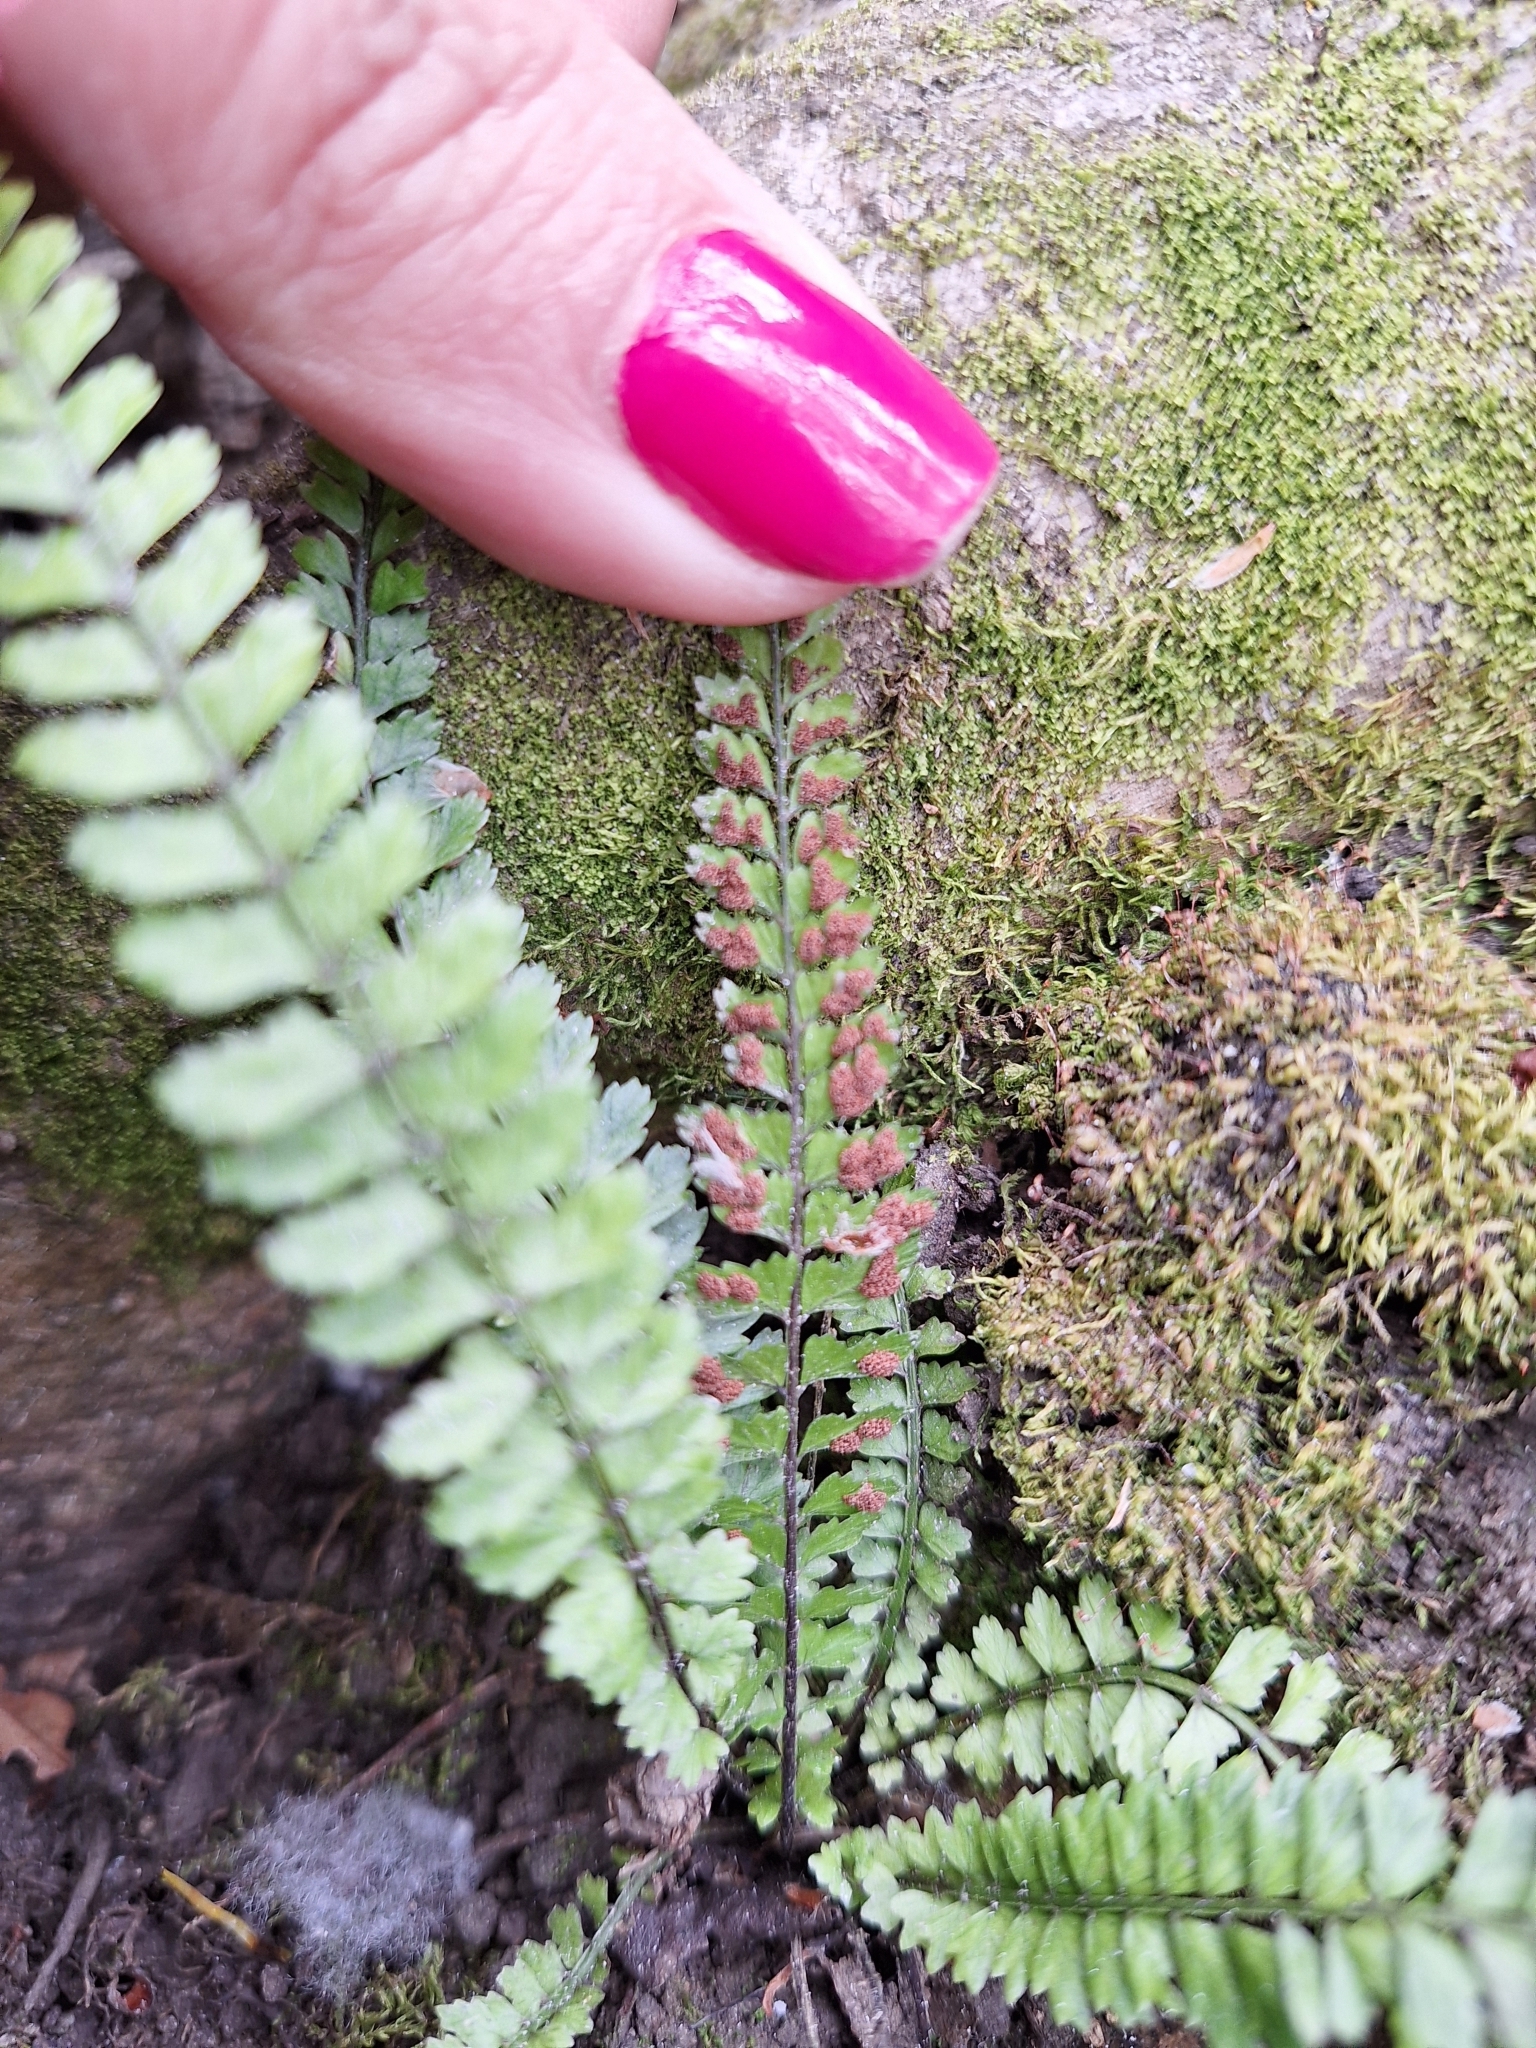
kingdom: Plantae
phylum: Tracheophyta
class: Polypodiopsida
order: Polypodiales
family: Nephrolepidaceae
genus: Nephrolepis
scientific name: Nephrolepis cordifolia
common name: Narrow swordfern
